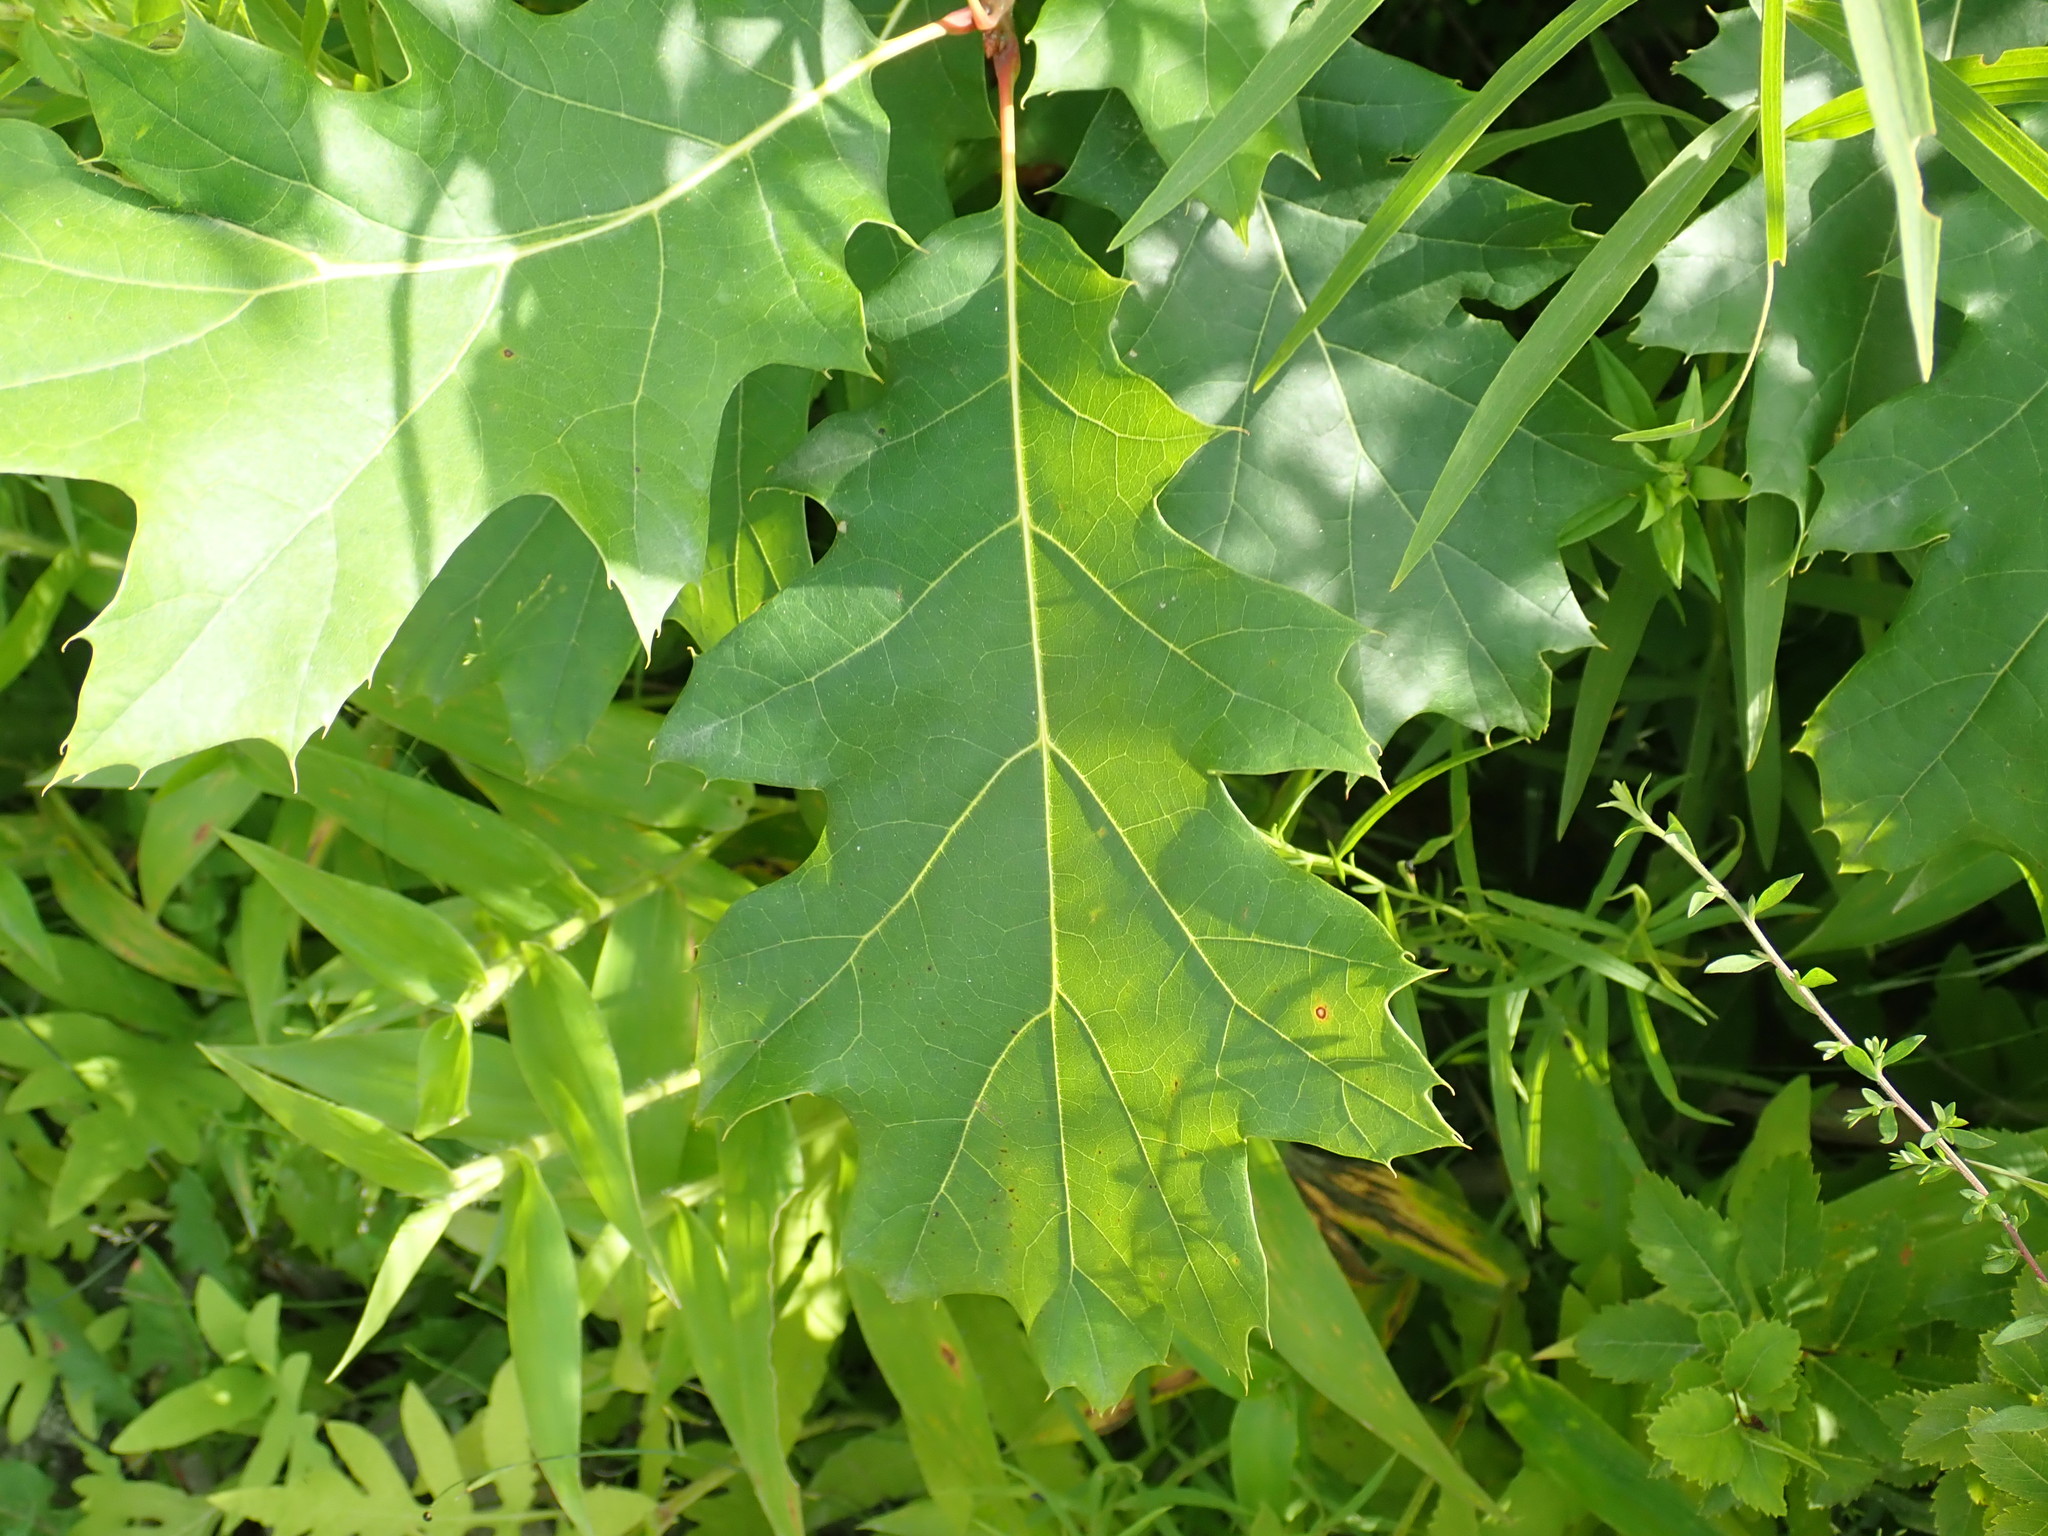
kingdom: Plantae
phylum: Tracheophyta
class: Magnoliopsida
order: Fagales
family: Fagaceae
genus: Quercus
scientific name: Quercus rubra
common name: Red oak
